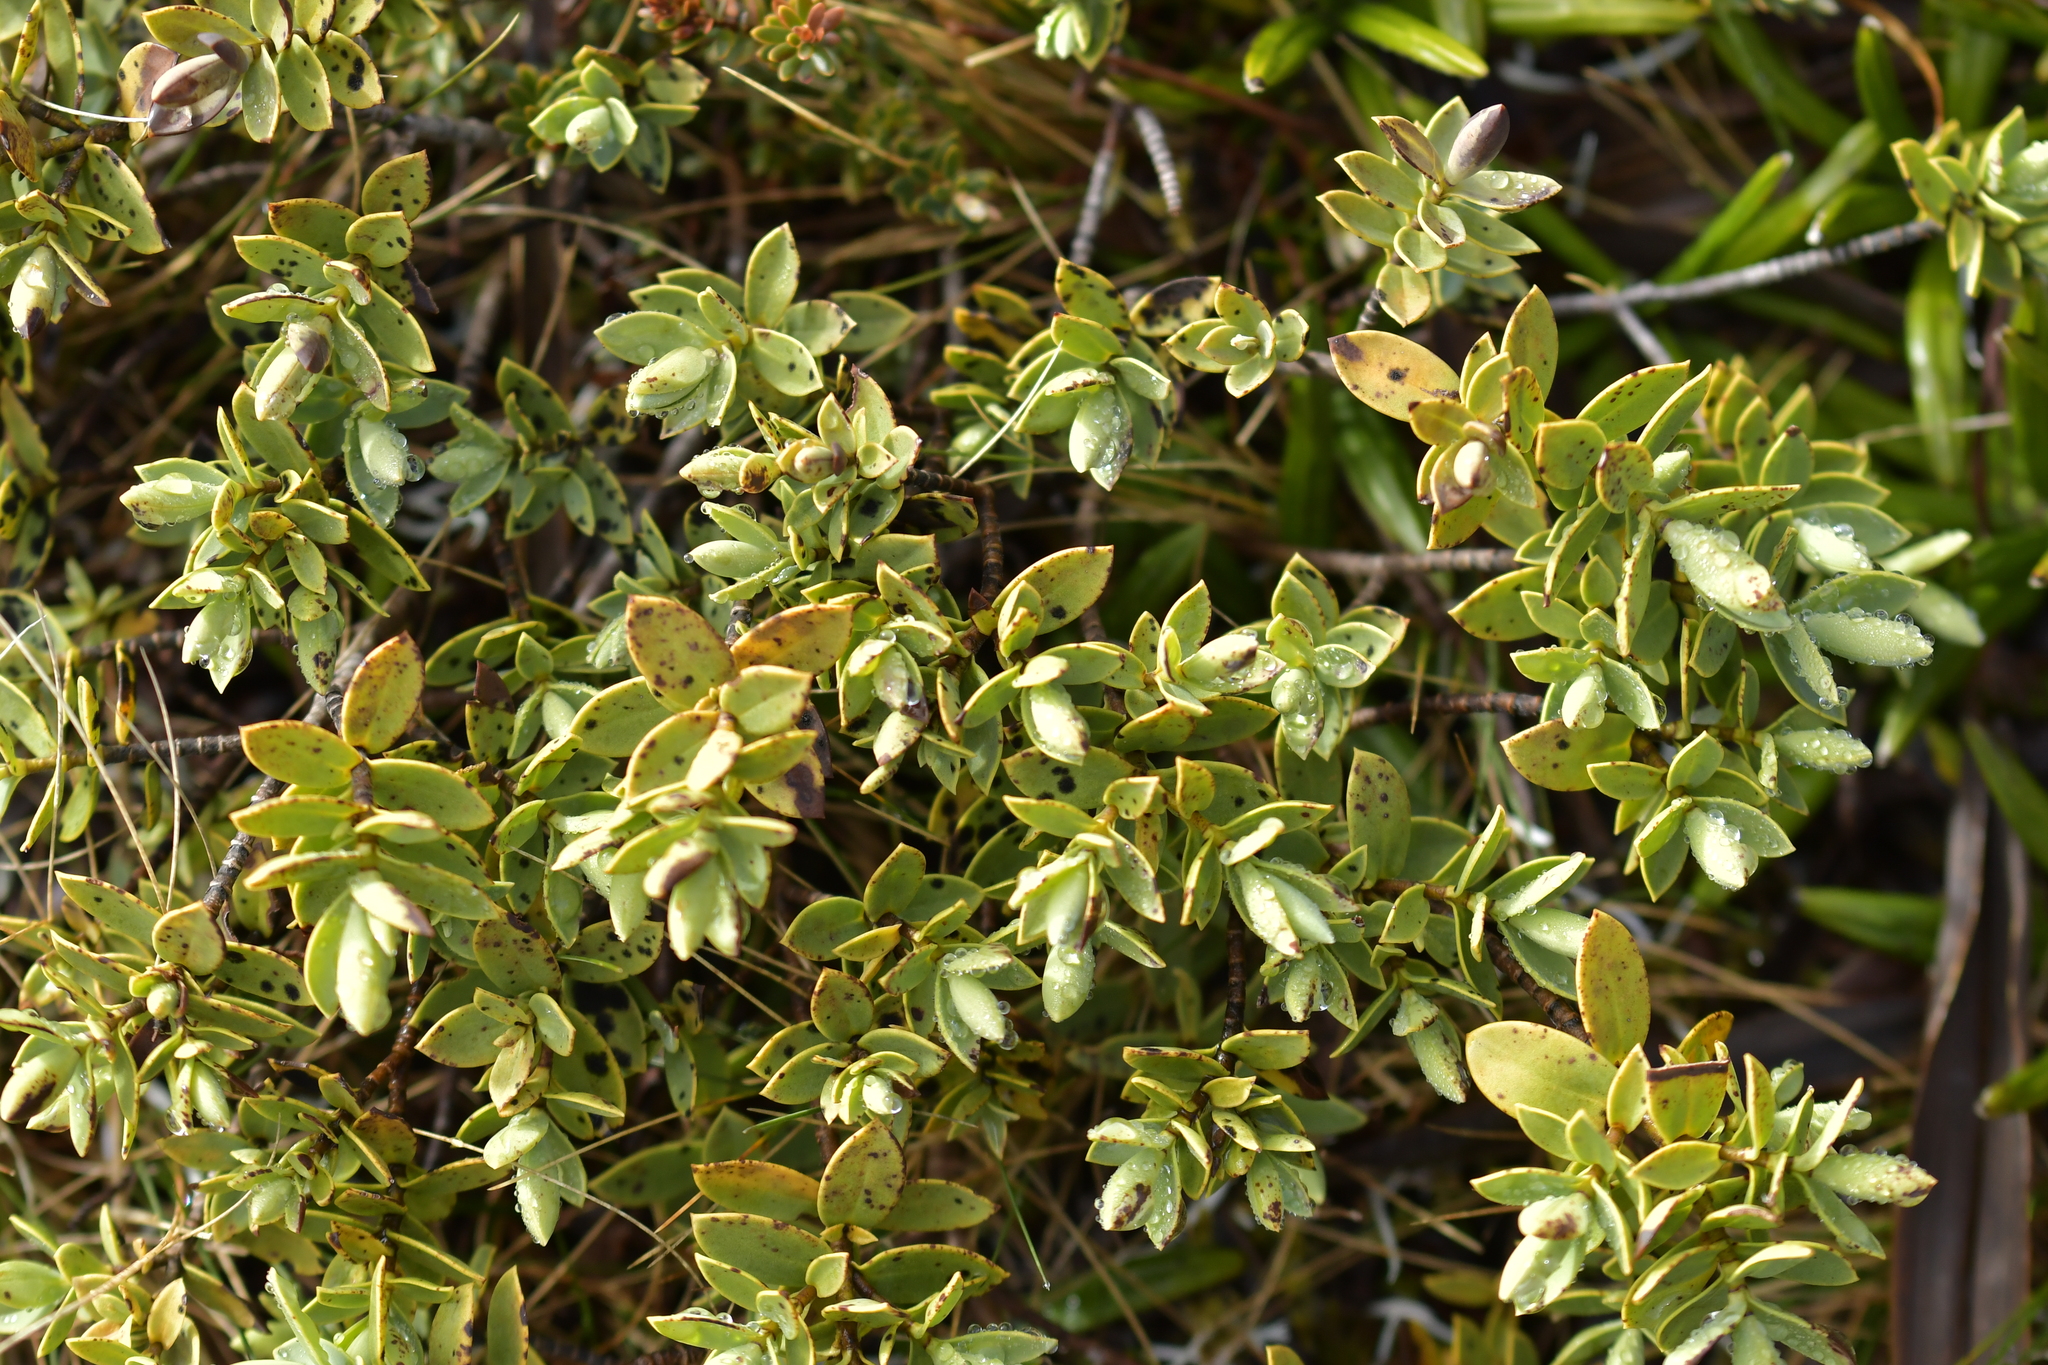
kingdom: Plantae
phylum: Tracheophyta
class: Magnoliopsida
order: Lamiales
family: Plantaginaceae
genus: Veronica
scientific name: Veronica topiaria
